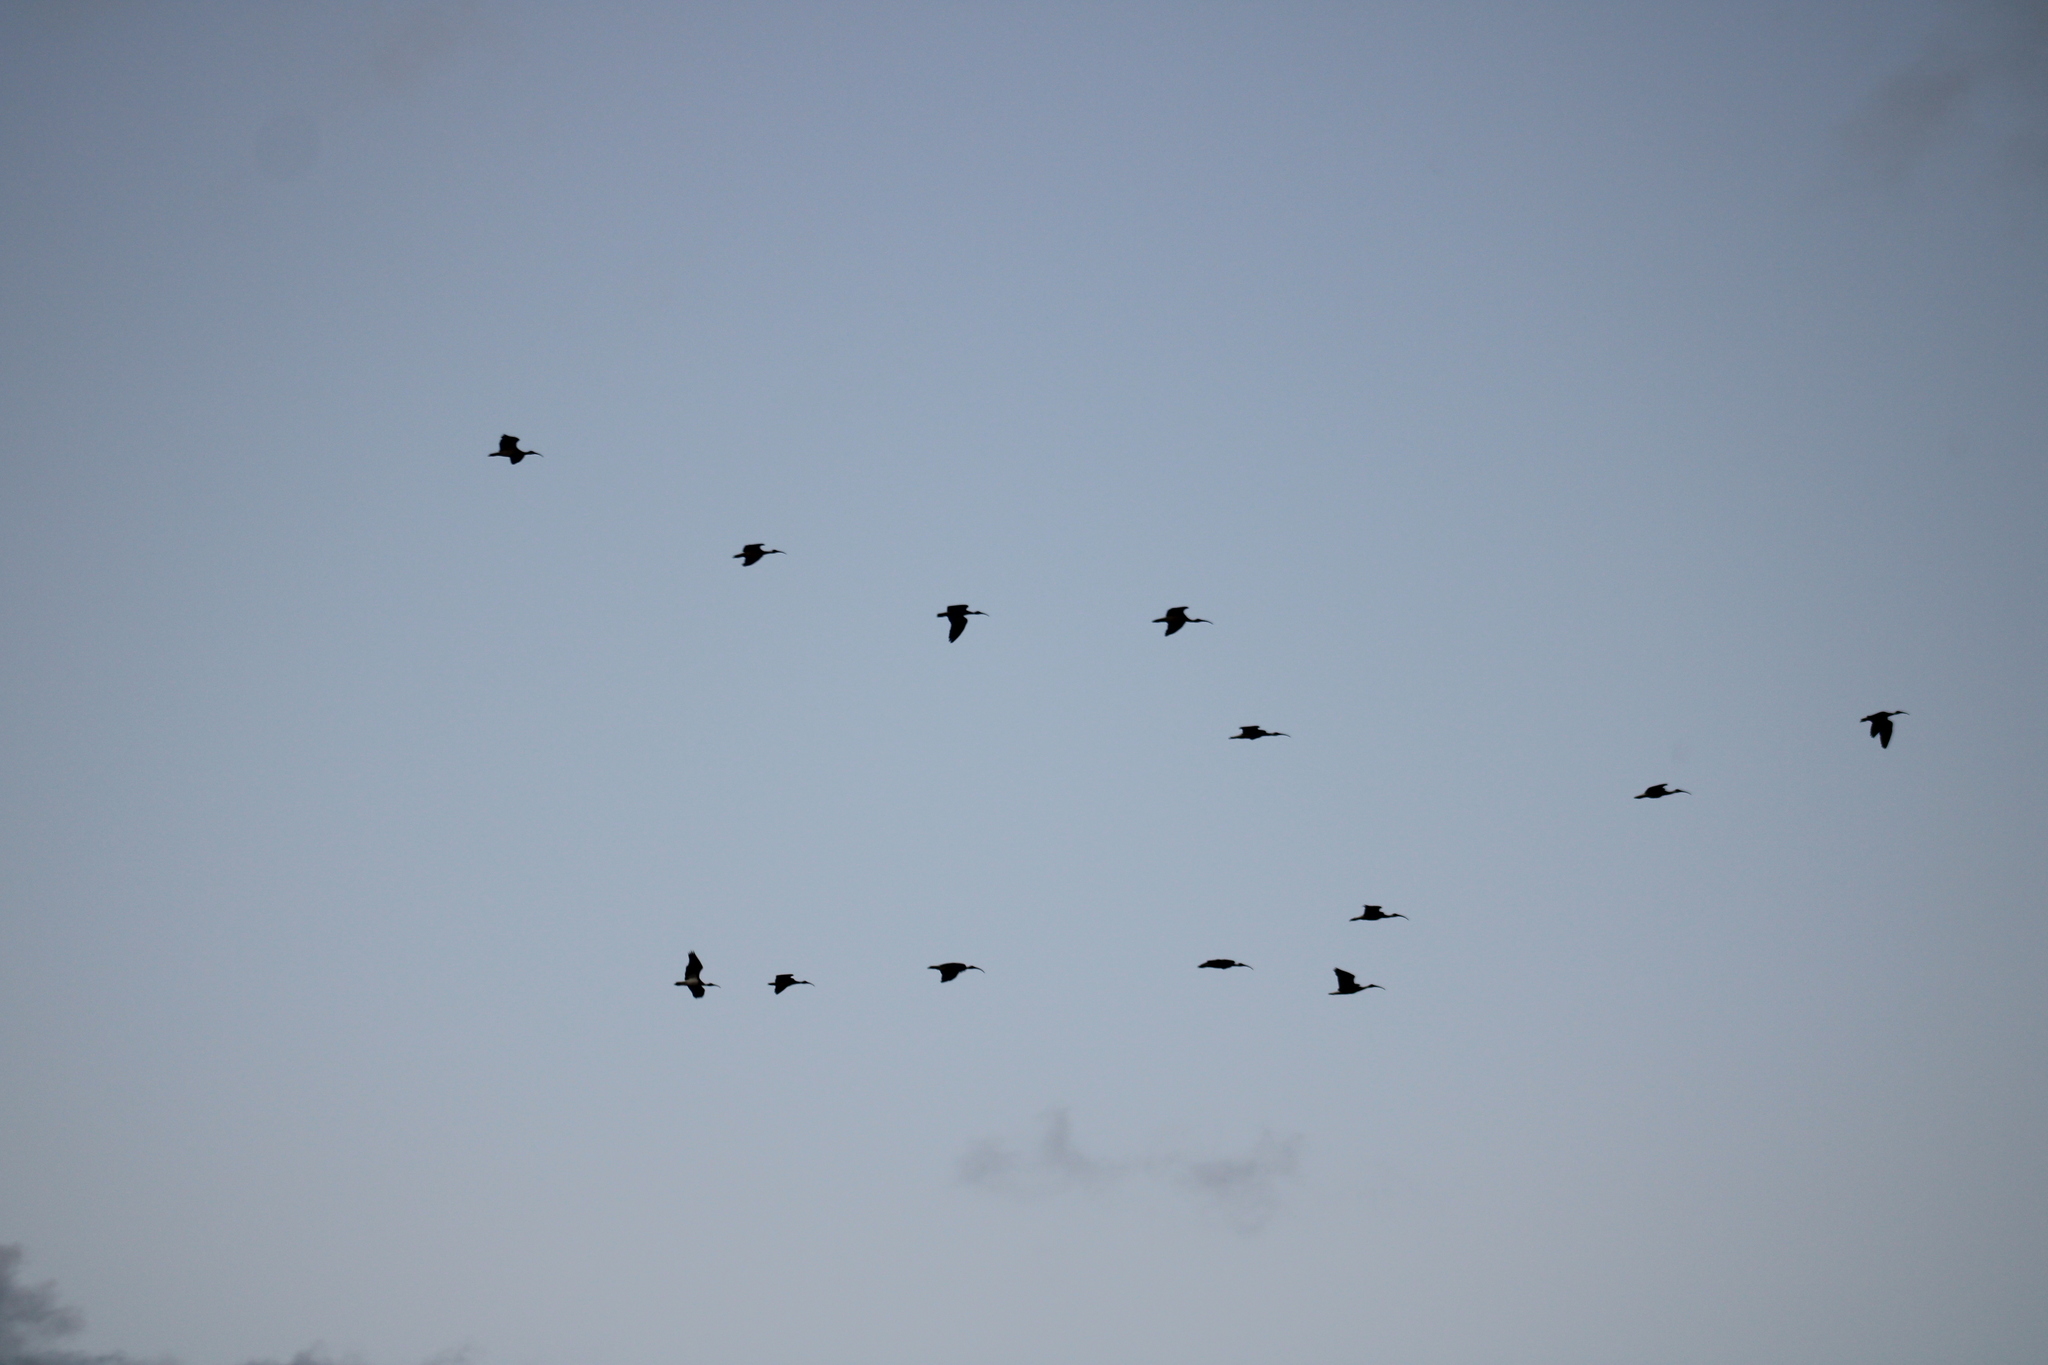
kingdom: Animalia
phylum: Chordata
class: Aves
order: Pelecaniformes
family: Threskiornithidae
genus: Threskiornis
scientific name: Threskiornis spinicollis
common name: Straw-necked ibis
